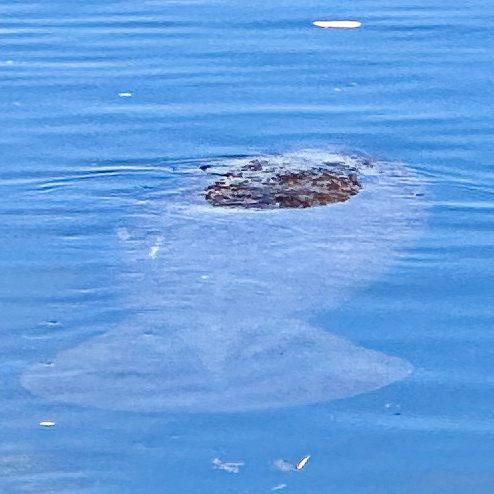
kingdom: Animalia
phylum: Chordata
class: Mammalia
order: Sirenia
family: Trichechidae
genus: Trichechus
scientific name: Trichechus manatus
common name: West indian manatee
